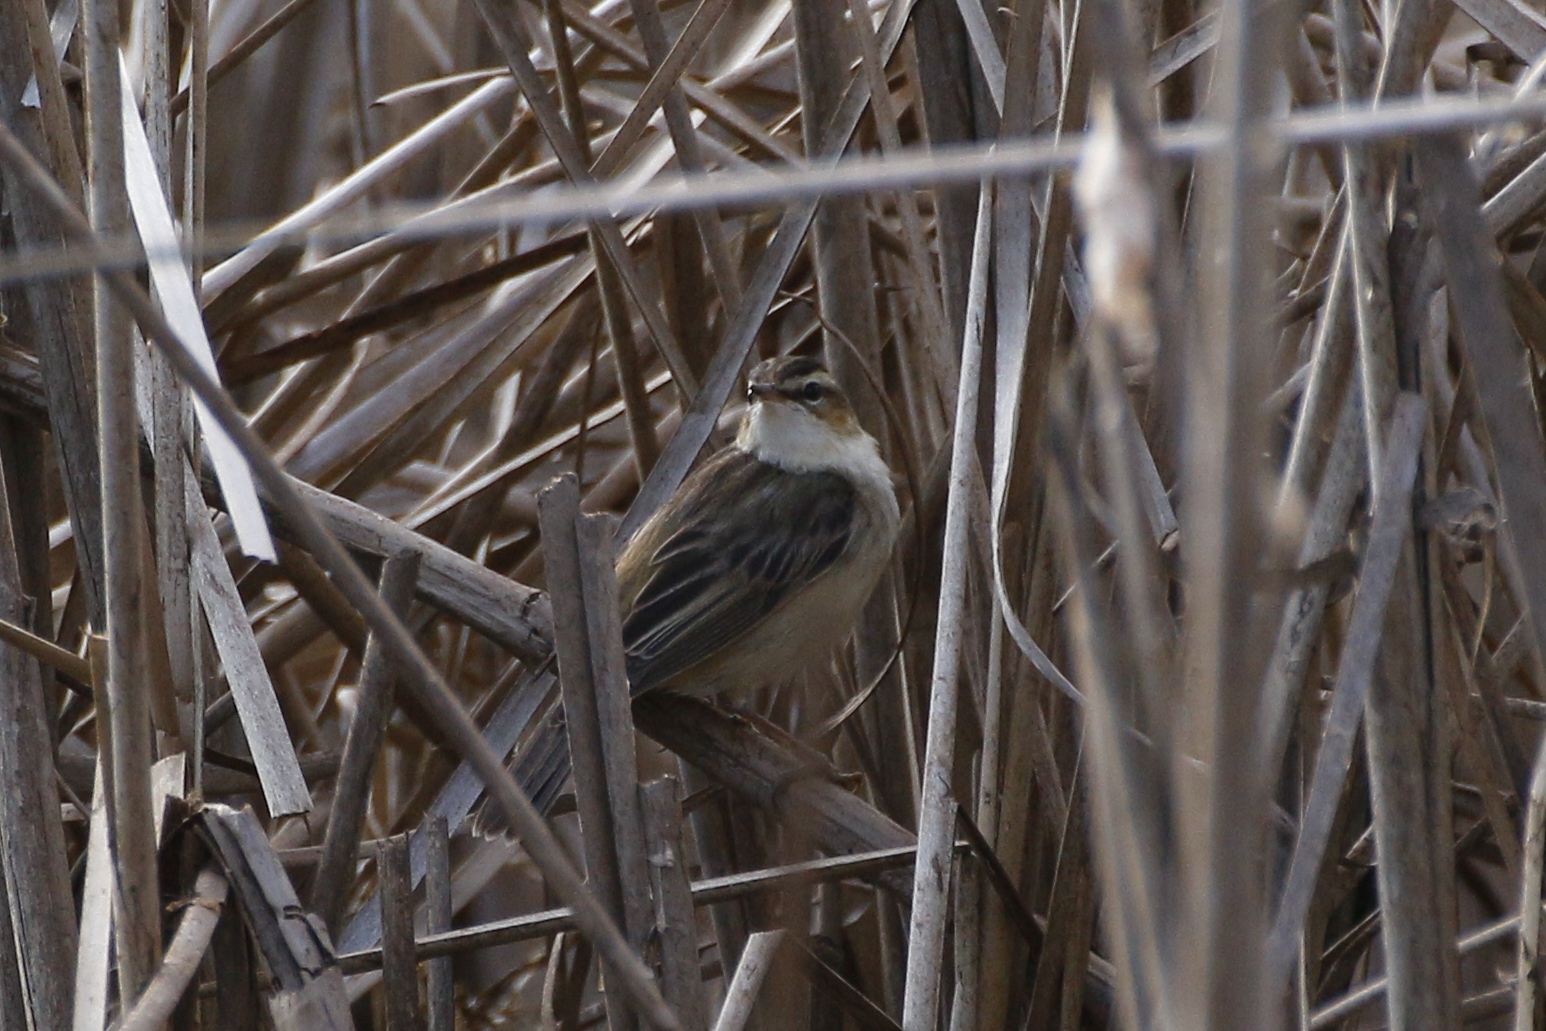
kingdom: Animalia
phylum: Chordata
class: Aves
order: Passeriformes
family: Acrocephalidae
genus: Acrocephalus
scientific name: Acrocephalus schoenobaenus
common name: Sedge warbler
